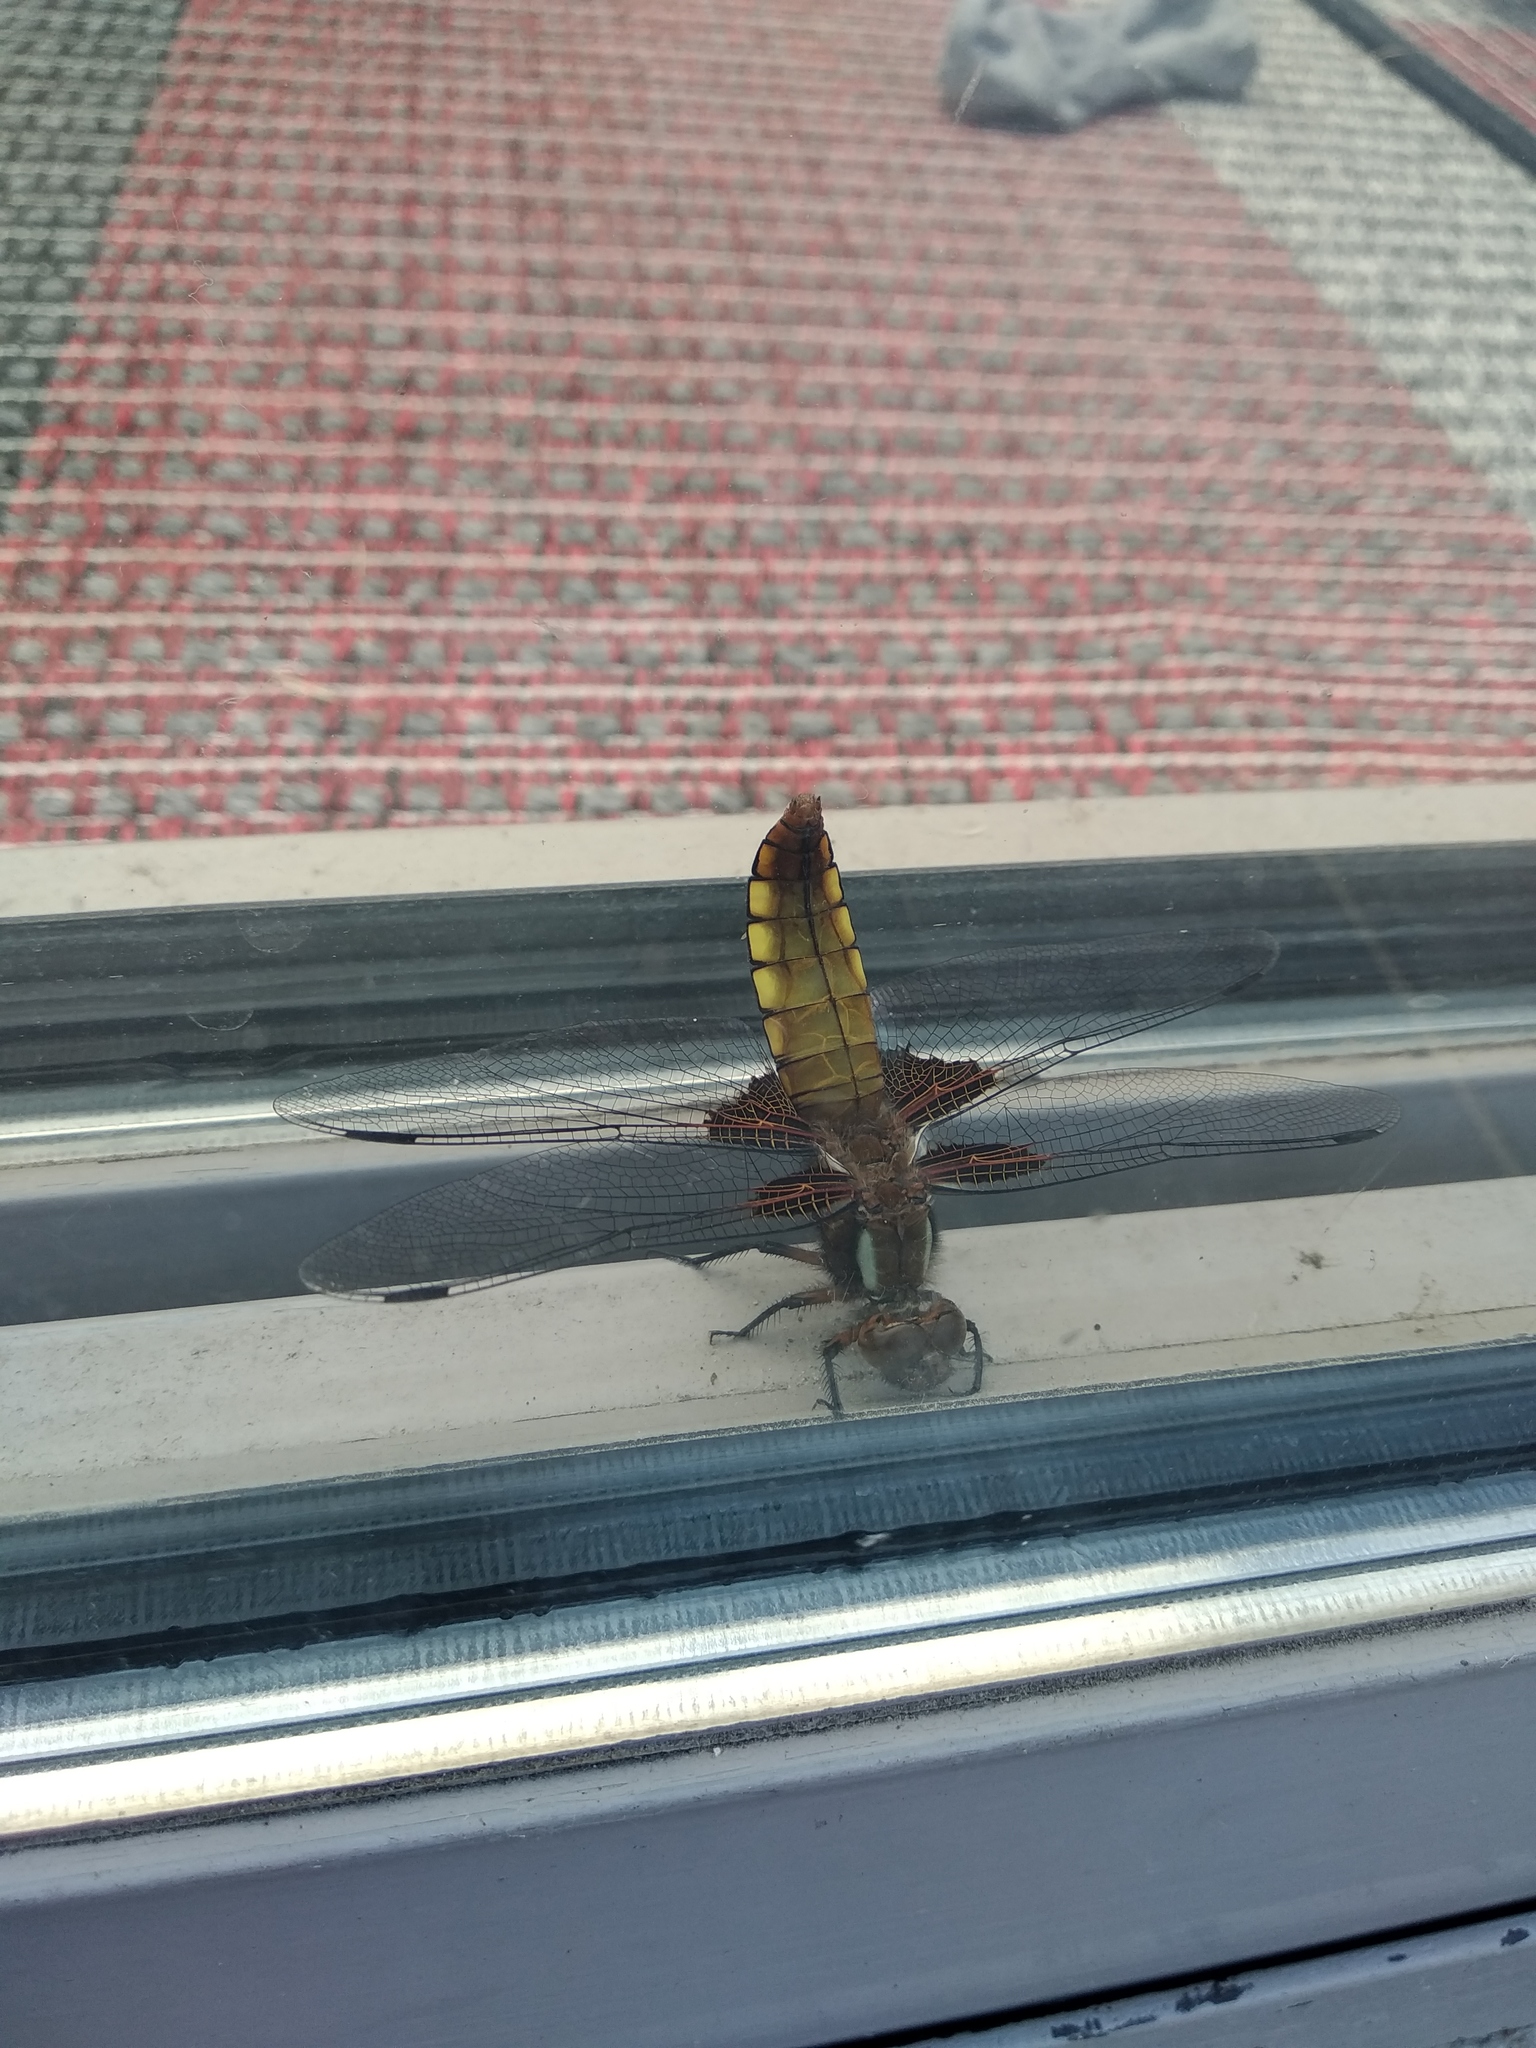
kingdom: Animalia
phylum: Arthropoda
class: Insecta
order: Odonata
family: Libellulidae
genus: Libellula
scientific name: Libellula depressa
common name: Broad-bodied chaser
